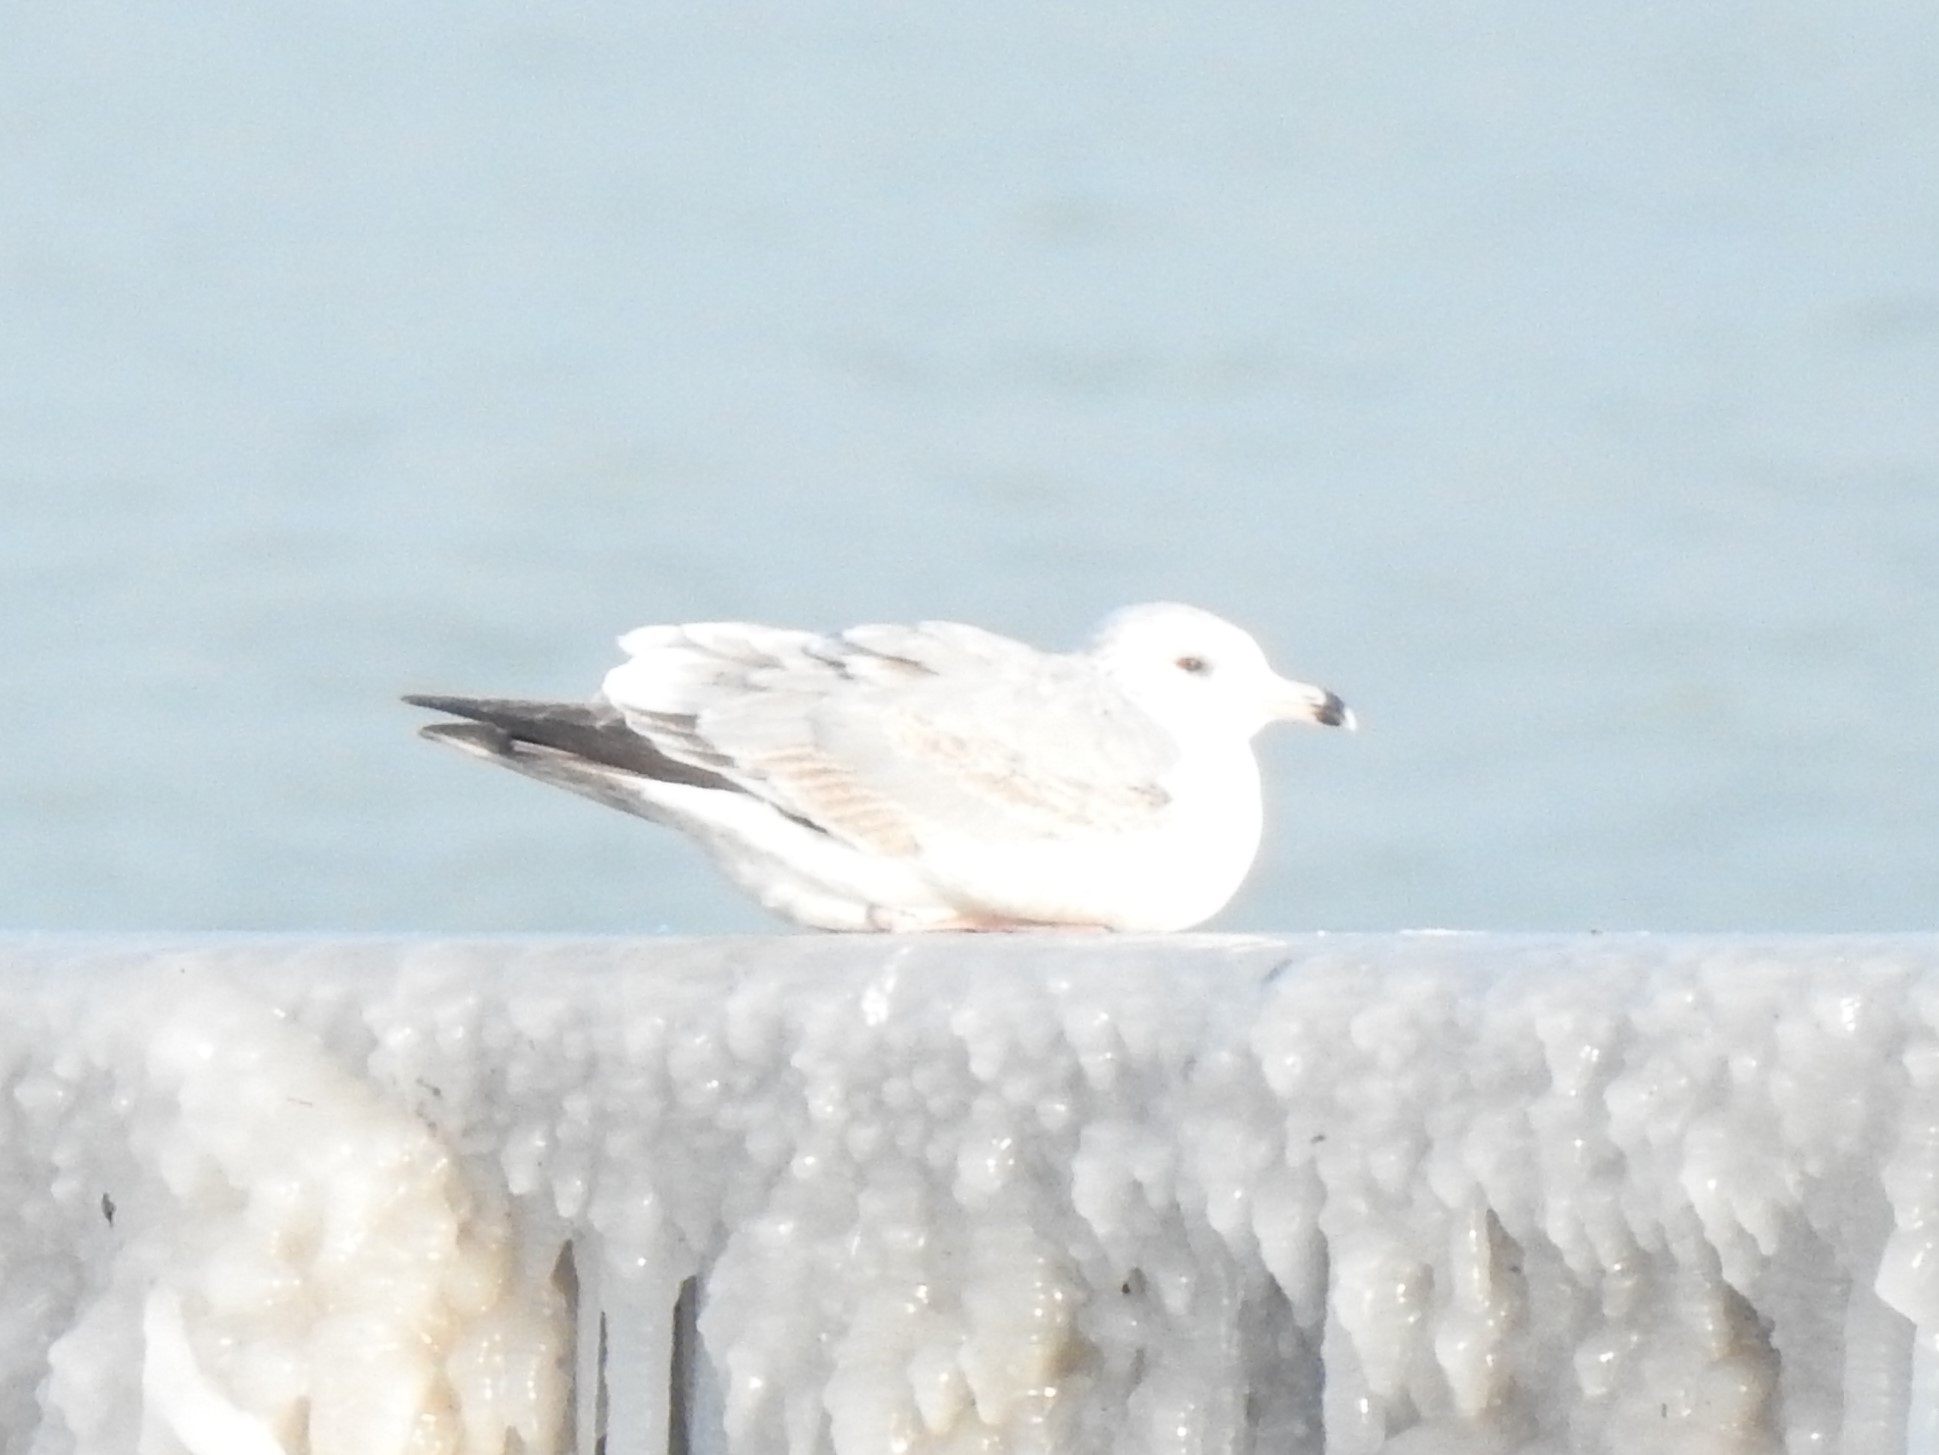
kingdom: Animalia
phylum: Chordata
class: Aves
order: Charadriiformes
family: Laridae
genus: Larus
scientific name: Larus delawarensis
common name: Ring-billed gull
